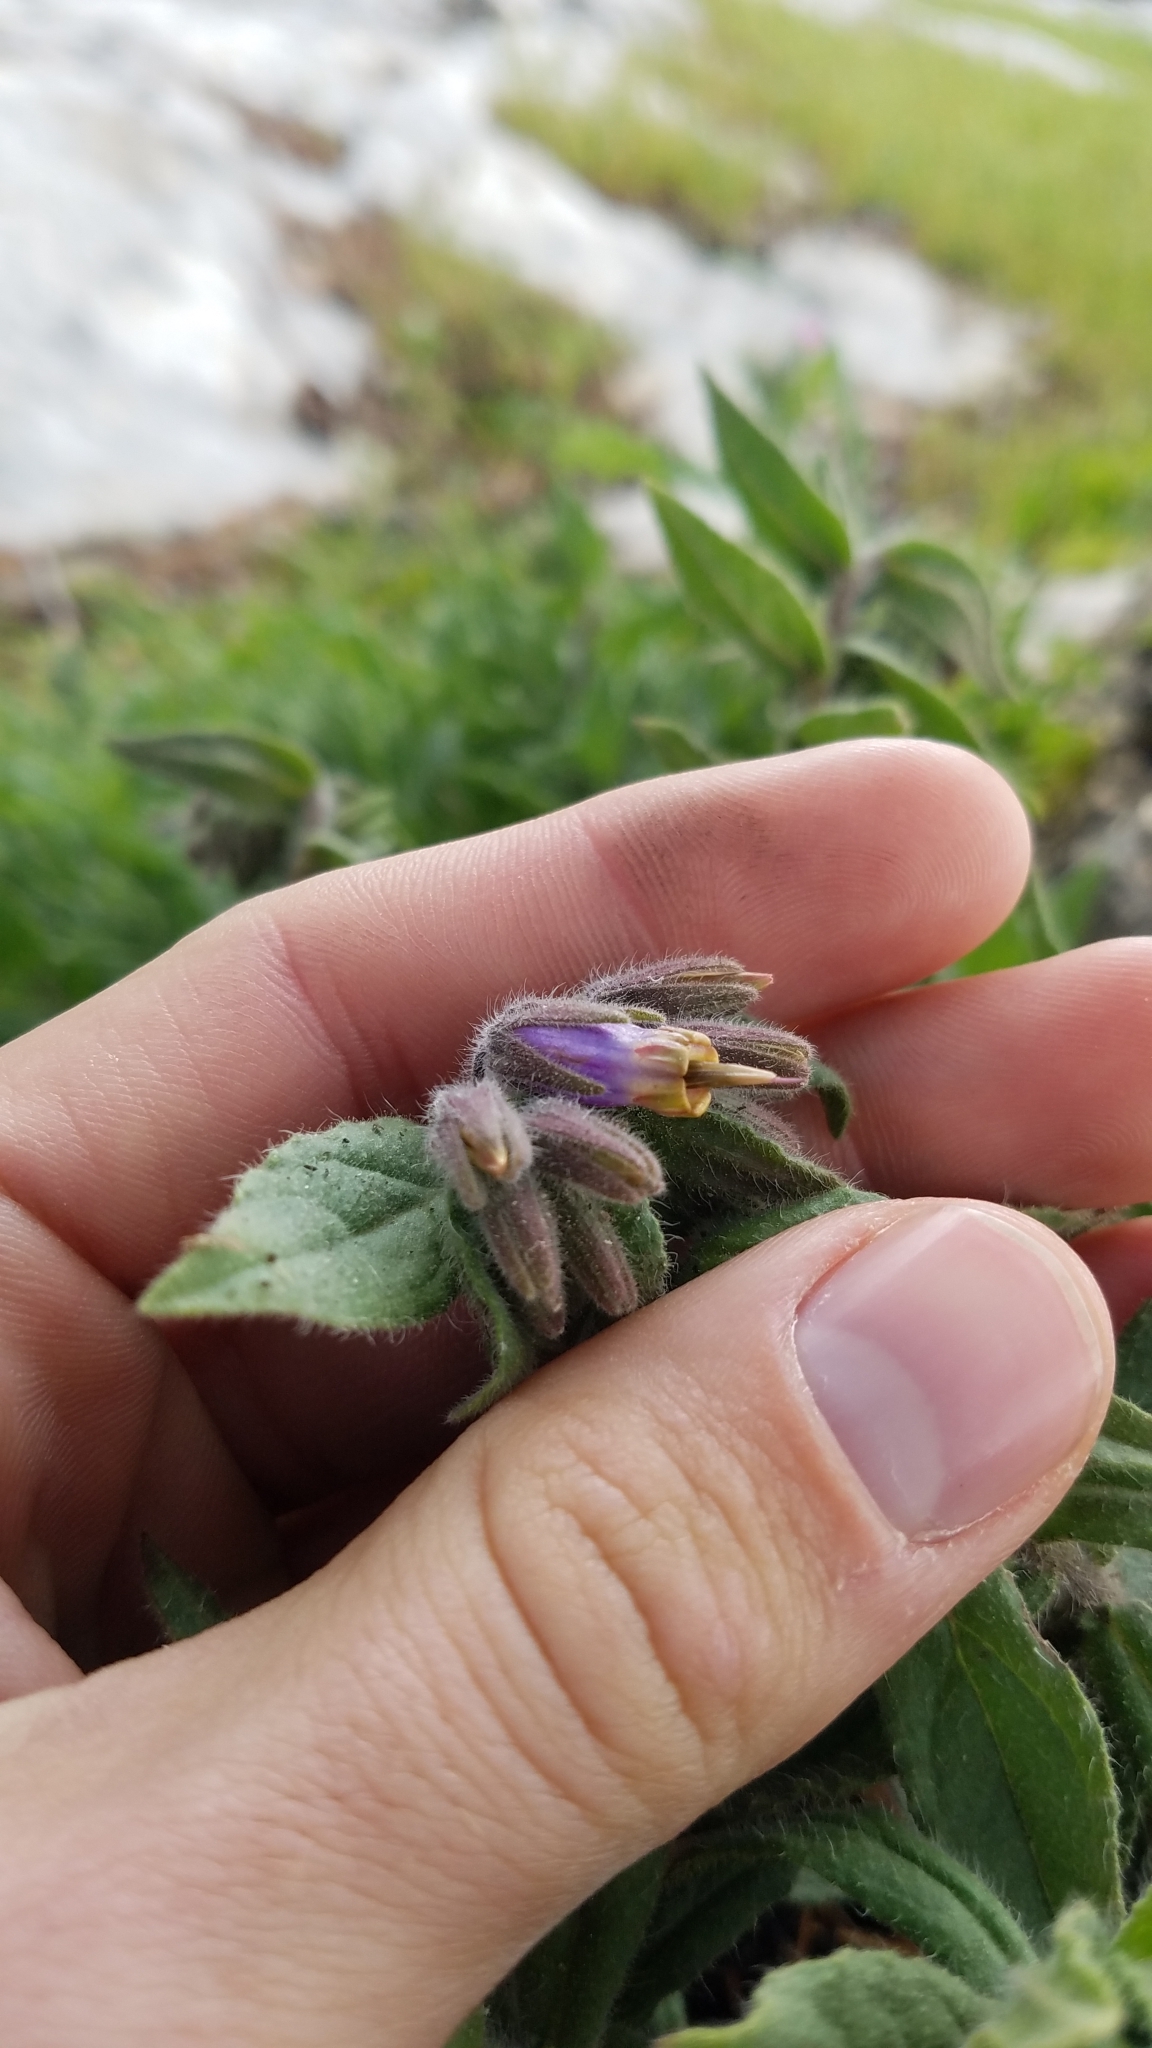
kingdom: Plantae
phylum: Tracheophyta
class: Magnoliopsida
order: Boraginales
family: Boraginaceae
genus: Podonosma
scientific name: Podonosma orientalis
